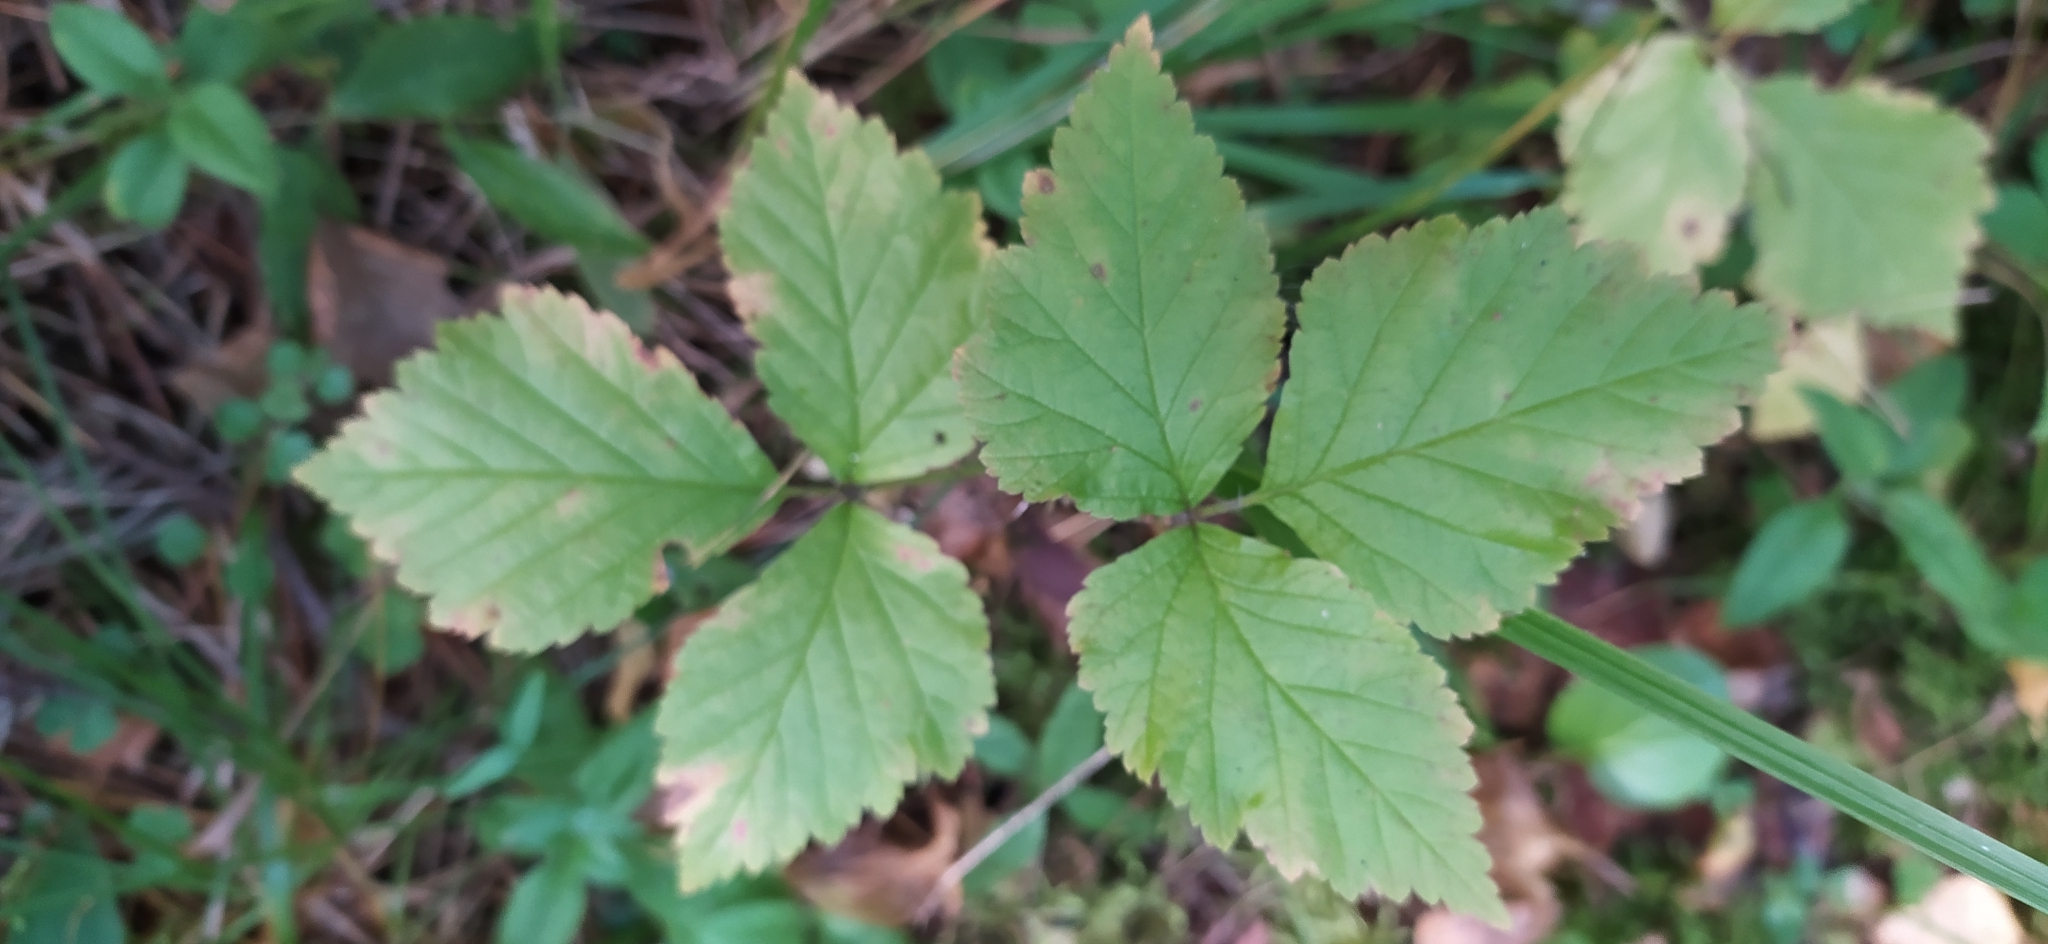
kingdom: Plantae
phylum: Tracheophyta
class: Magnoliopsida
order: Rosales
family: Rosaceae
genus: Rubus
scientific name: Rubus saxatilis
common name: Stone bramble
